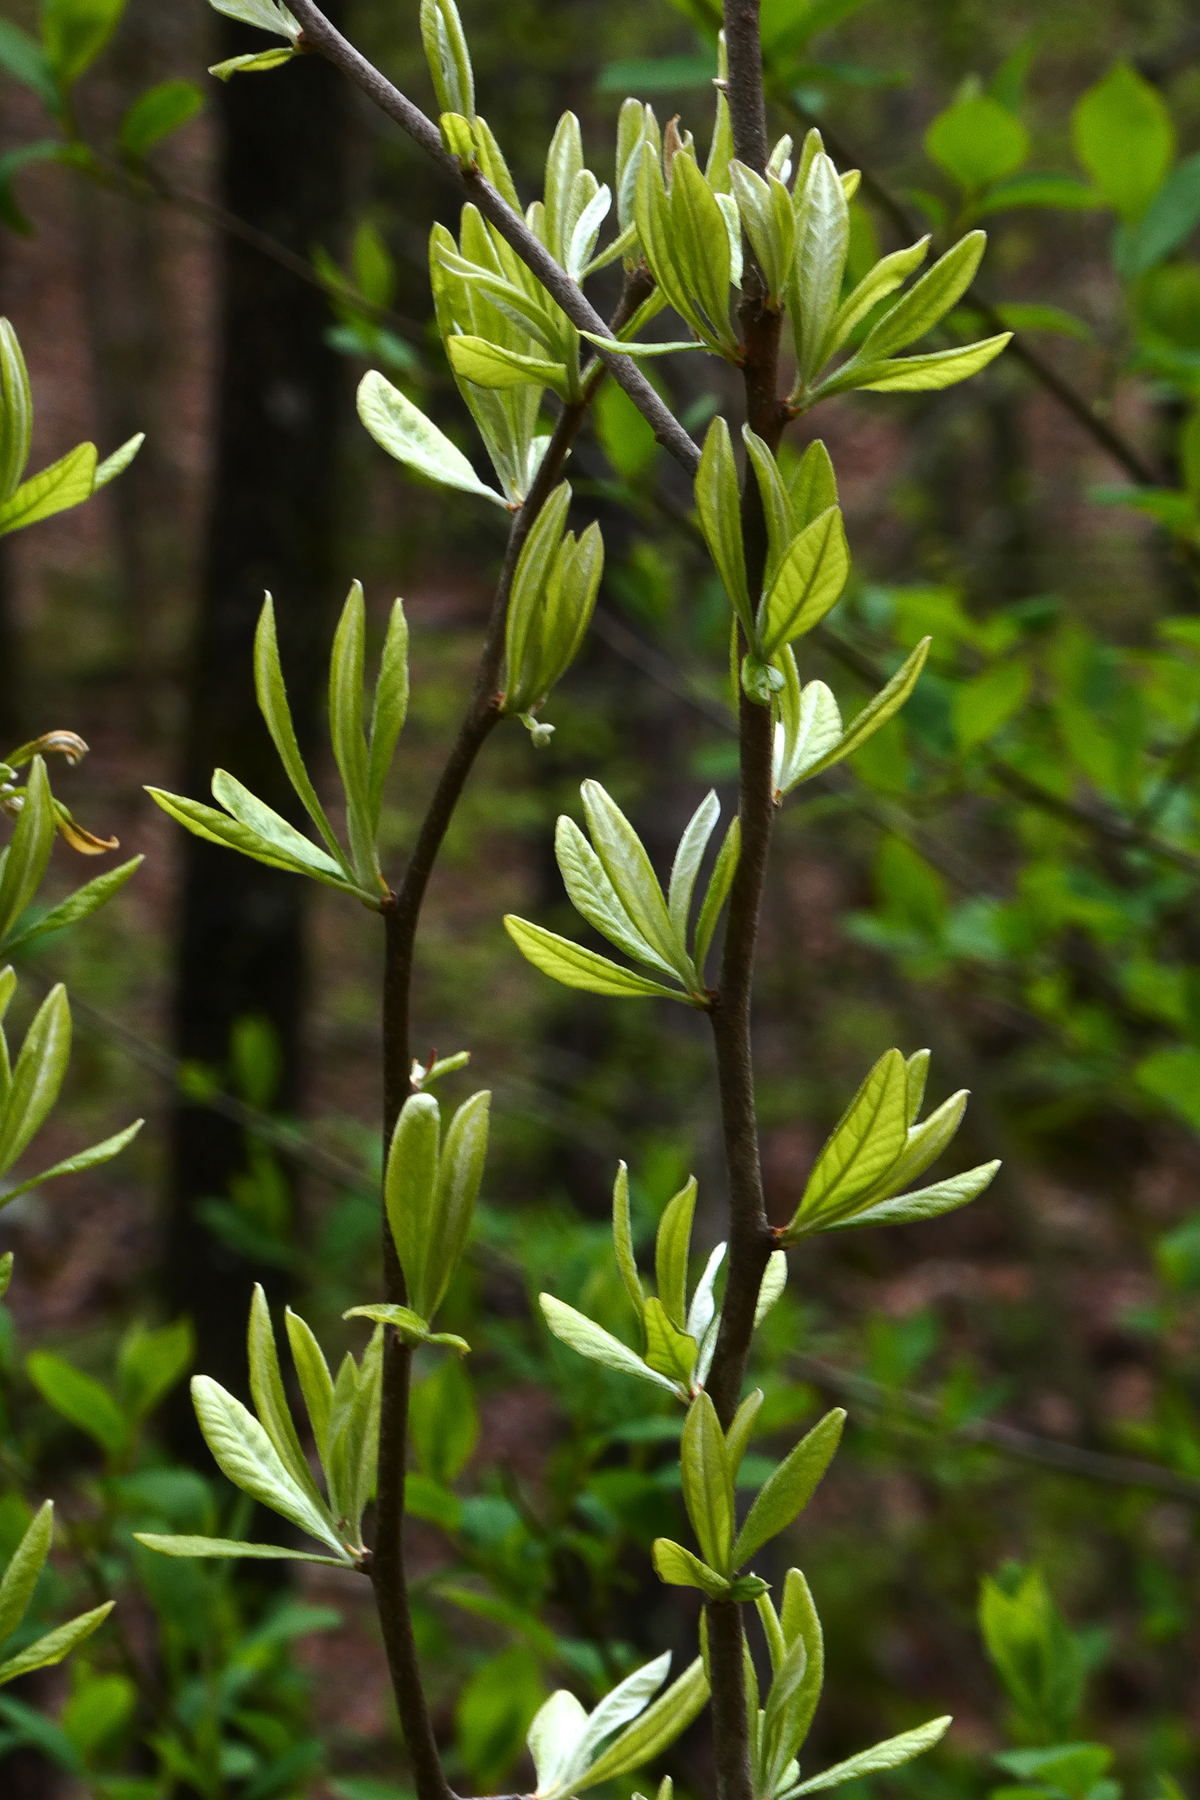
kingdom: Plantae
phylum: Tracheophyta
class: Magnoliopsida
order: Ericales
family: Sapotaceae
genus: Sideroxylon
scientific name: Sideroxylon lanuginosum
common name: Chittamwood
